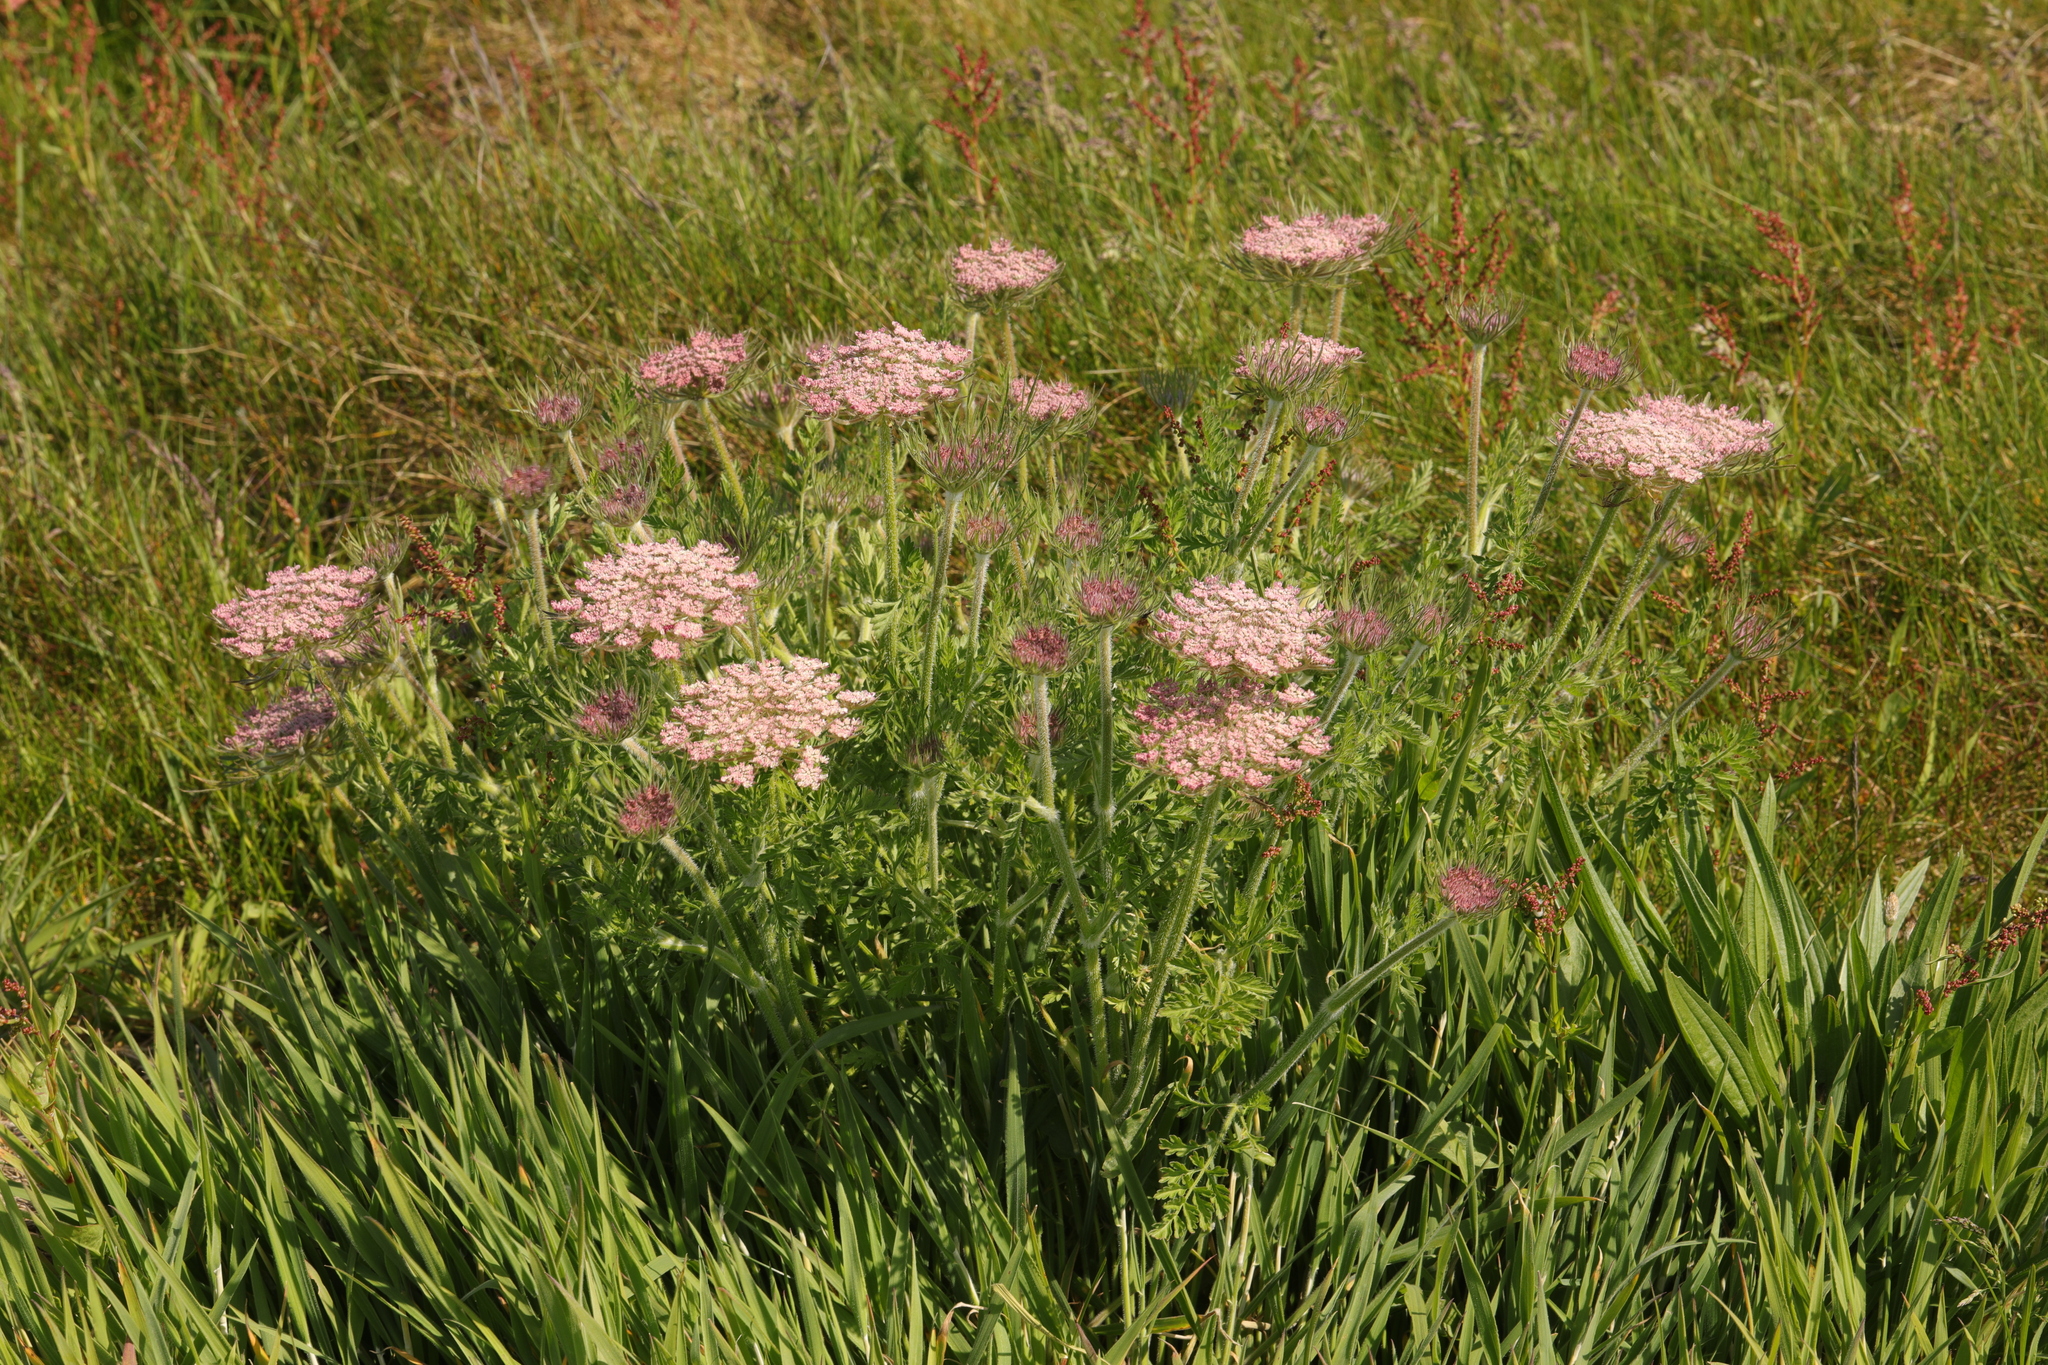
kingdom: Plantae
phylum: Tracheophyta
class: Magnoliopsida
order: Apiales
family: Apiaceae
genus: Daucus
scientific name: Daucus carota
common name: Wild carrot
